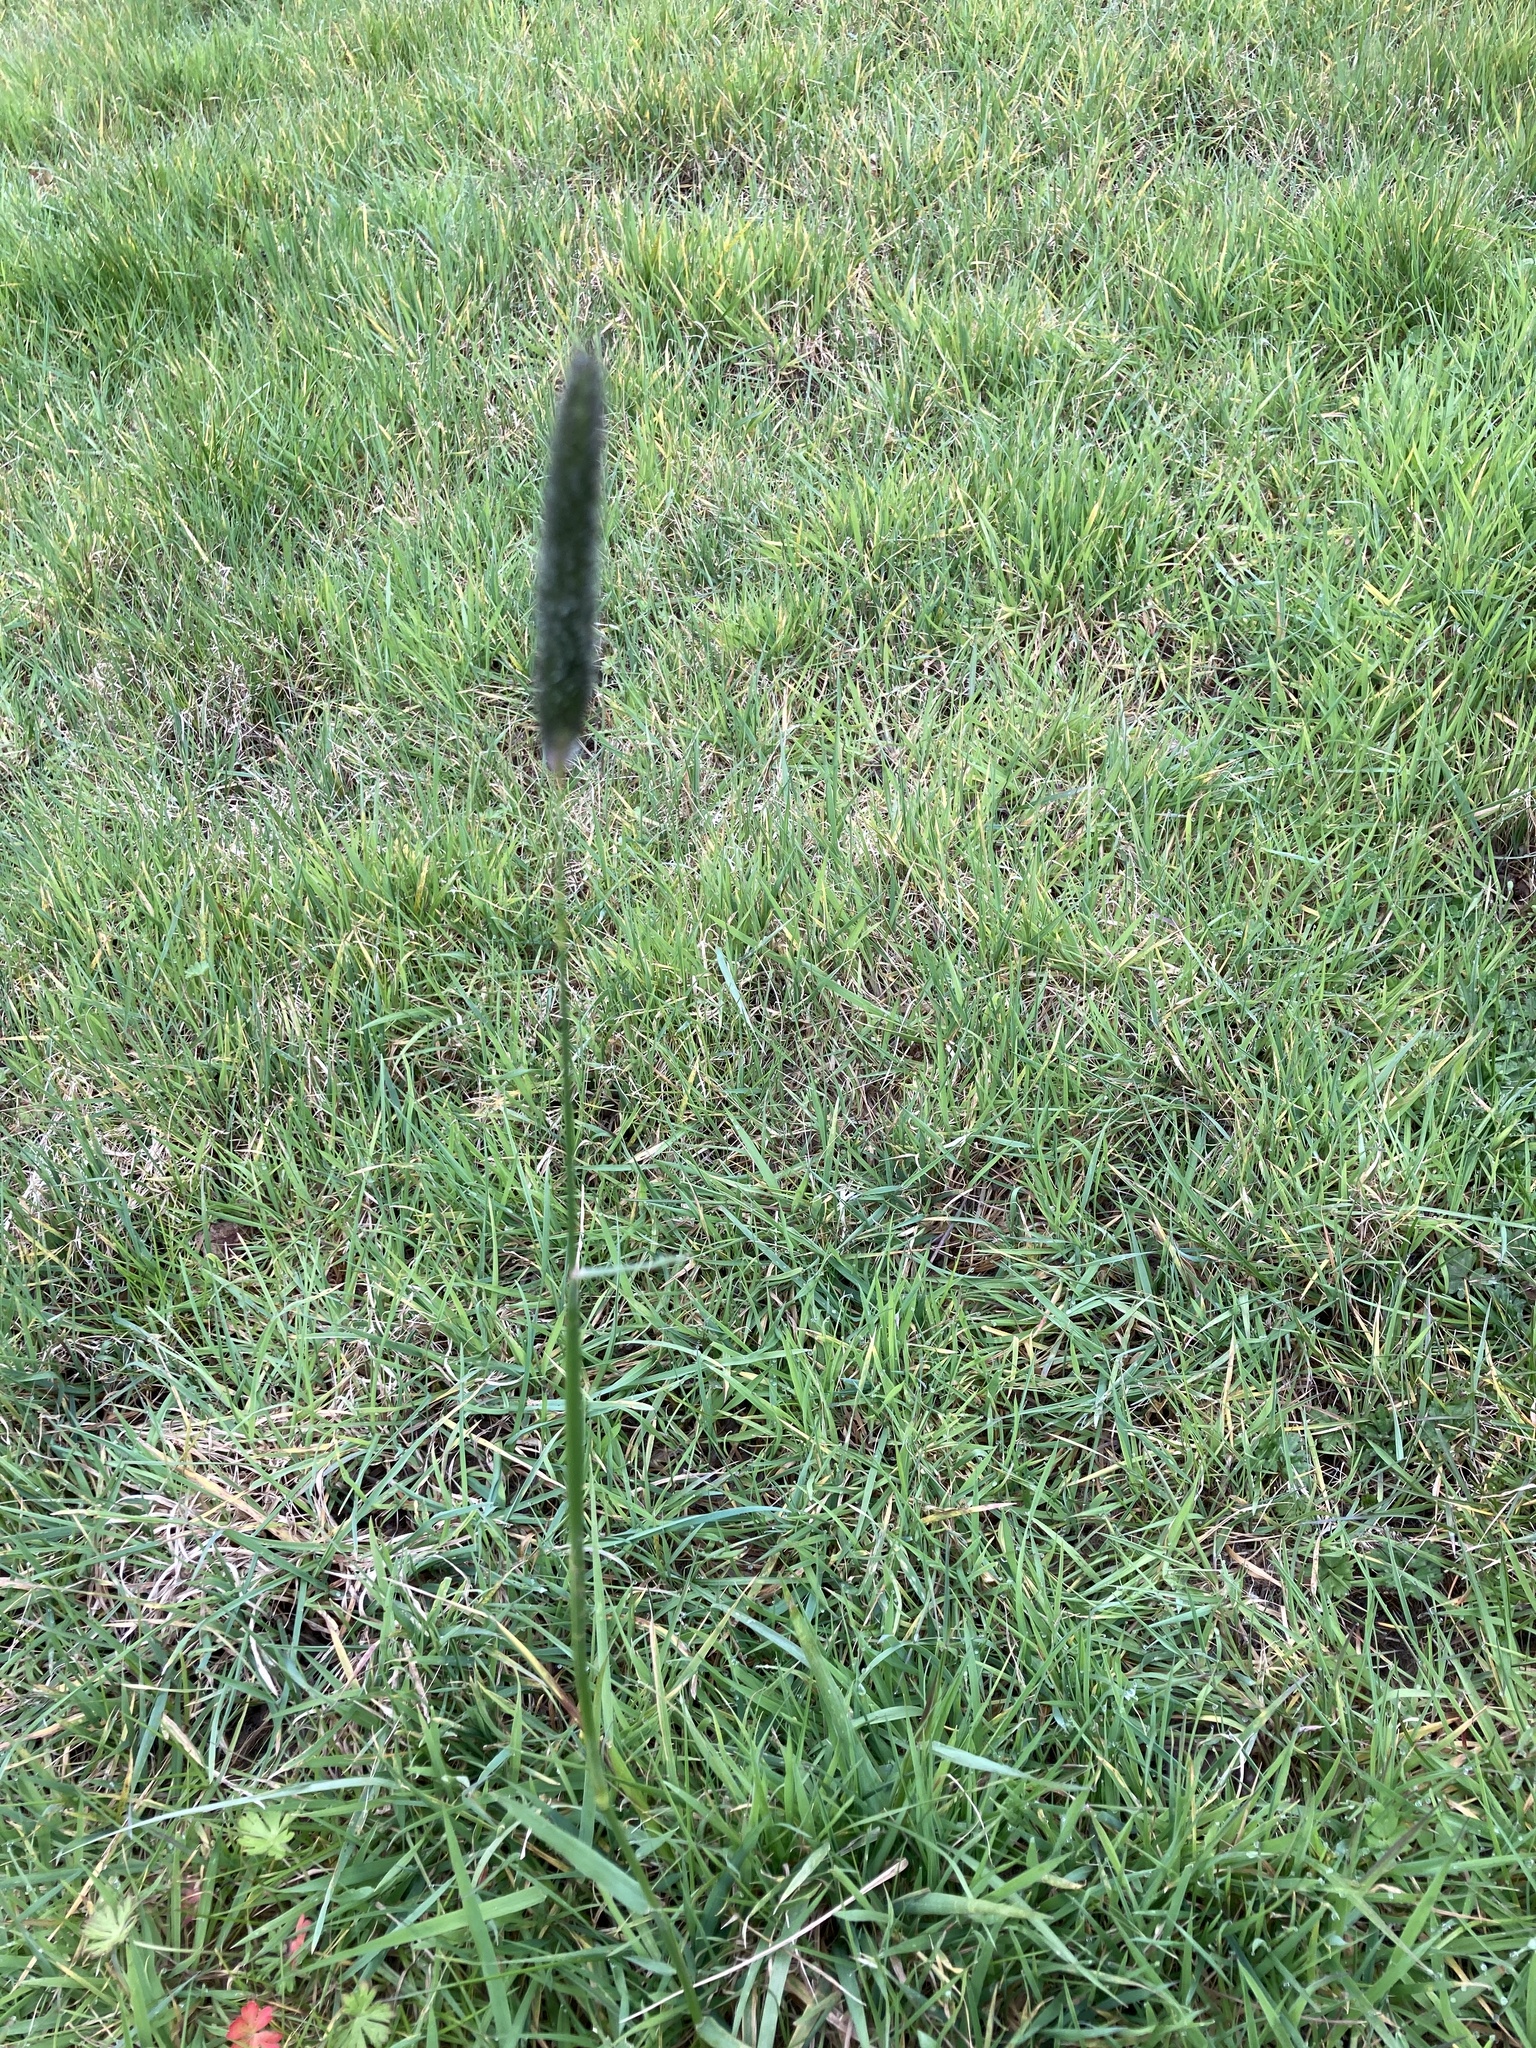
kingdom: Plantae
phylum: Tracheophyta
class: Liliopsida
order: Poales
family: Poaceae
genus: Alopecurus
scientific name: Alopecurus pratensis
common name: Meadow foxtail
